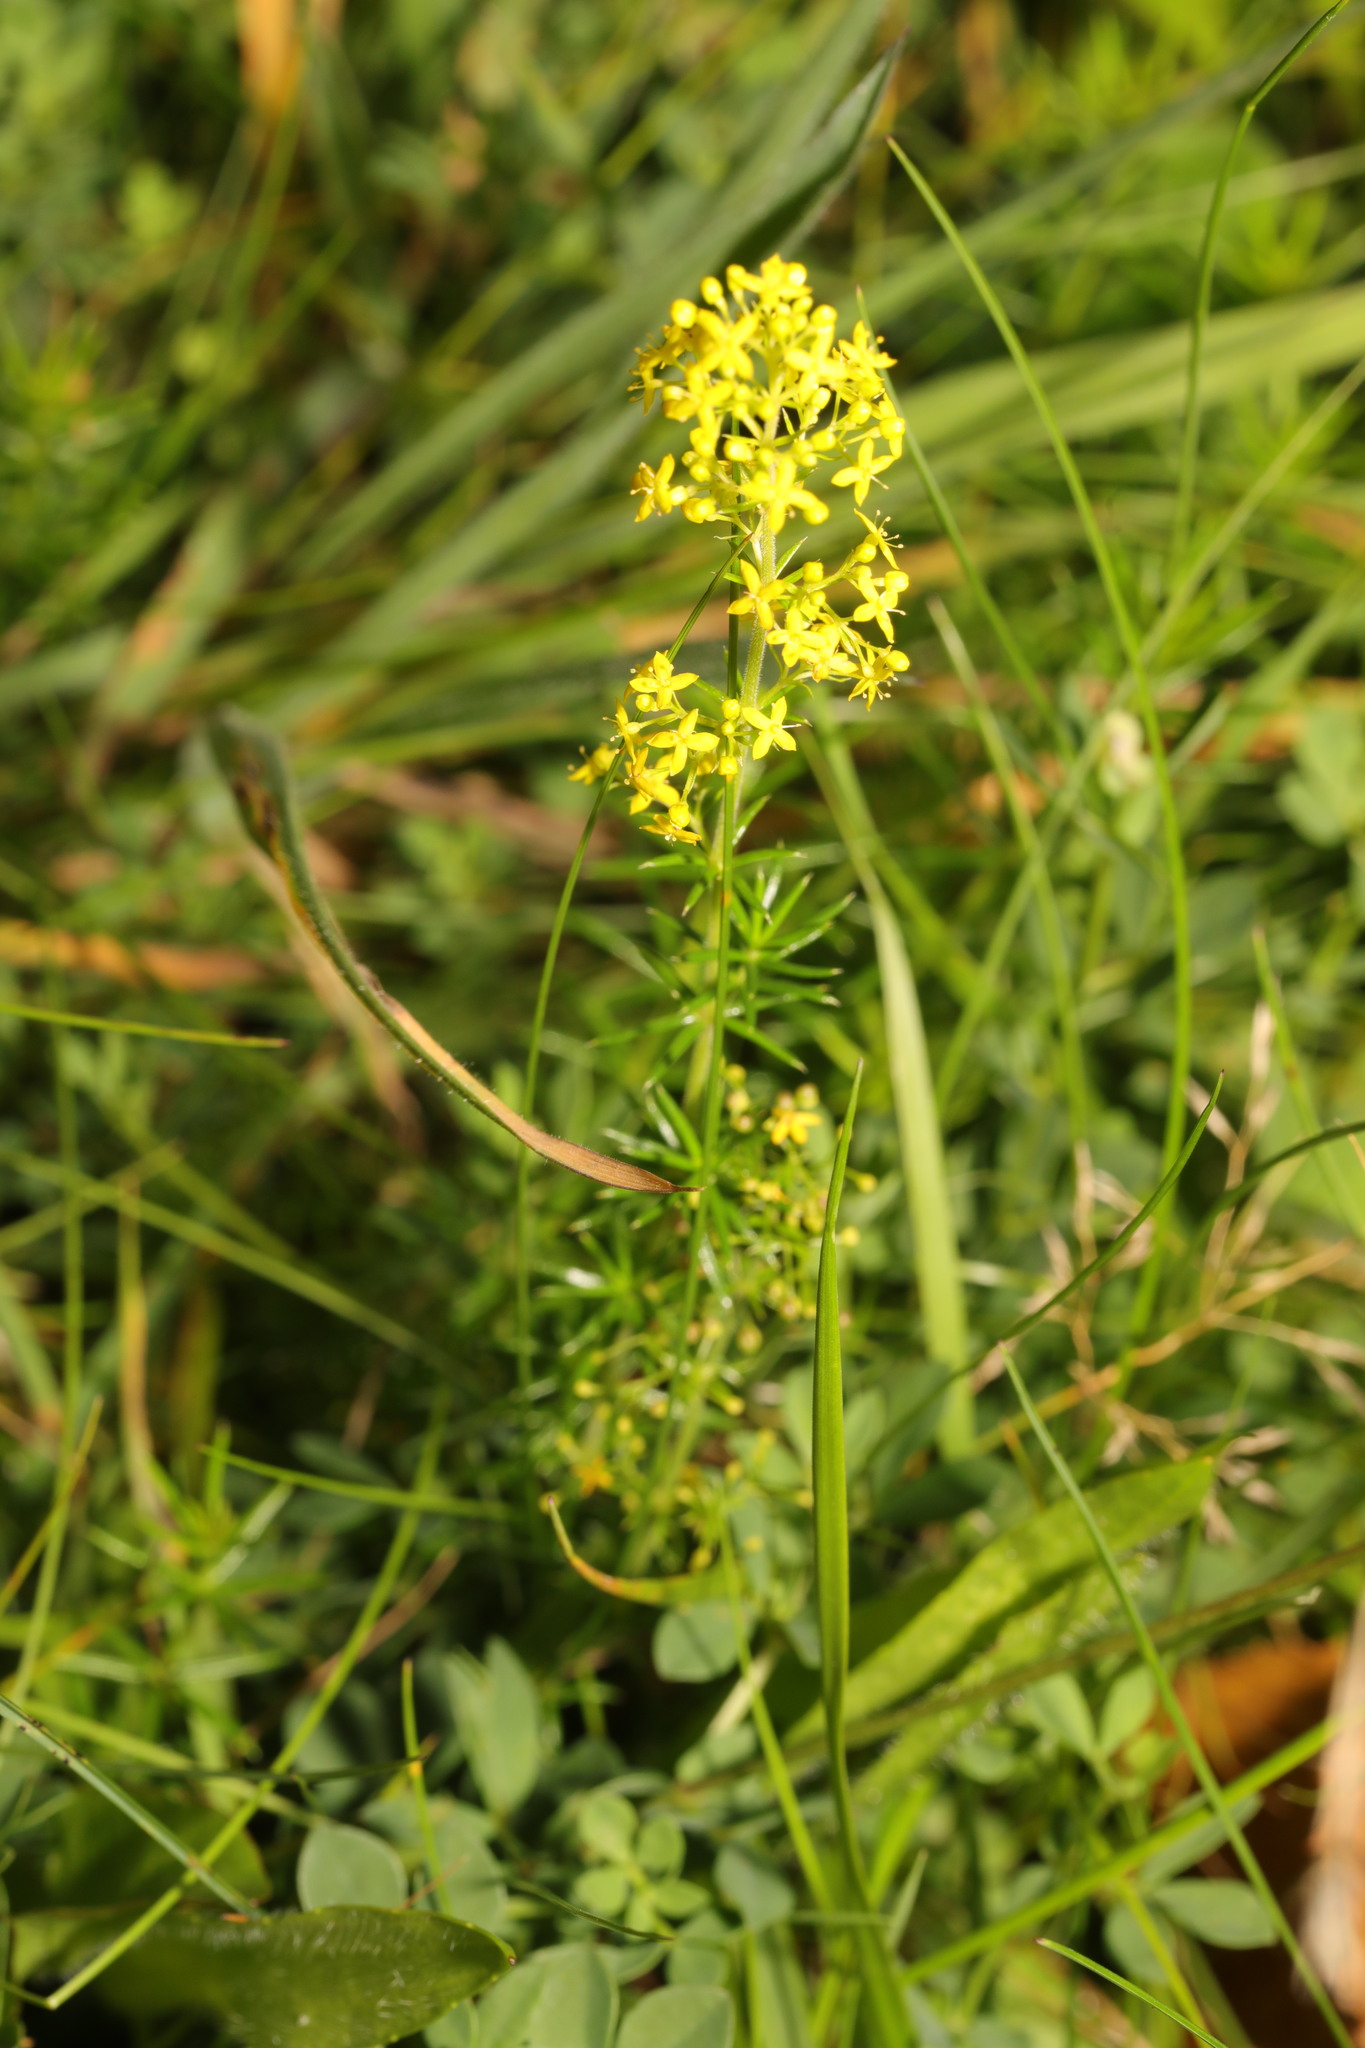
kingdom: Plantae
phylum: Tracheophyta
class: Magnoliopsida
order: Gentianales
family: Rubiaceae
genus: Galium
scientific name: Galium verum
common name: Lady's bedstraw
